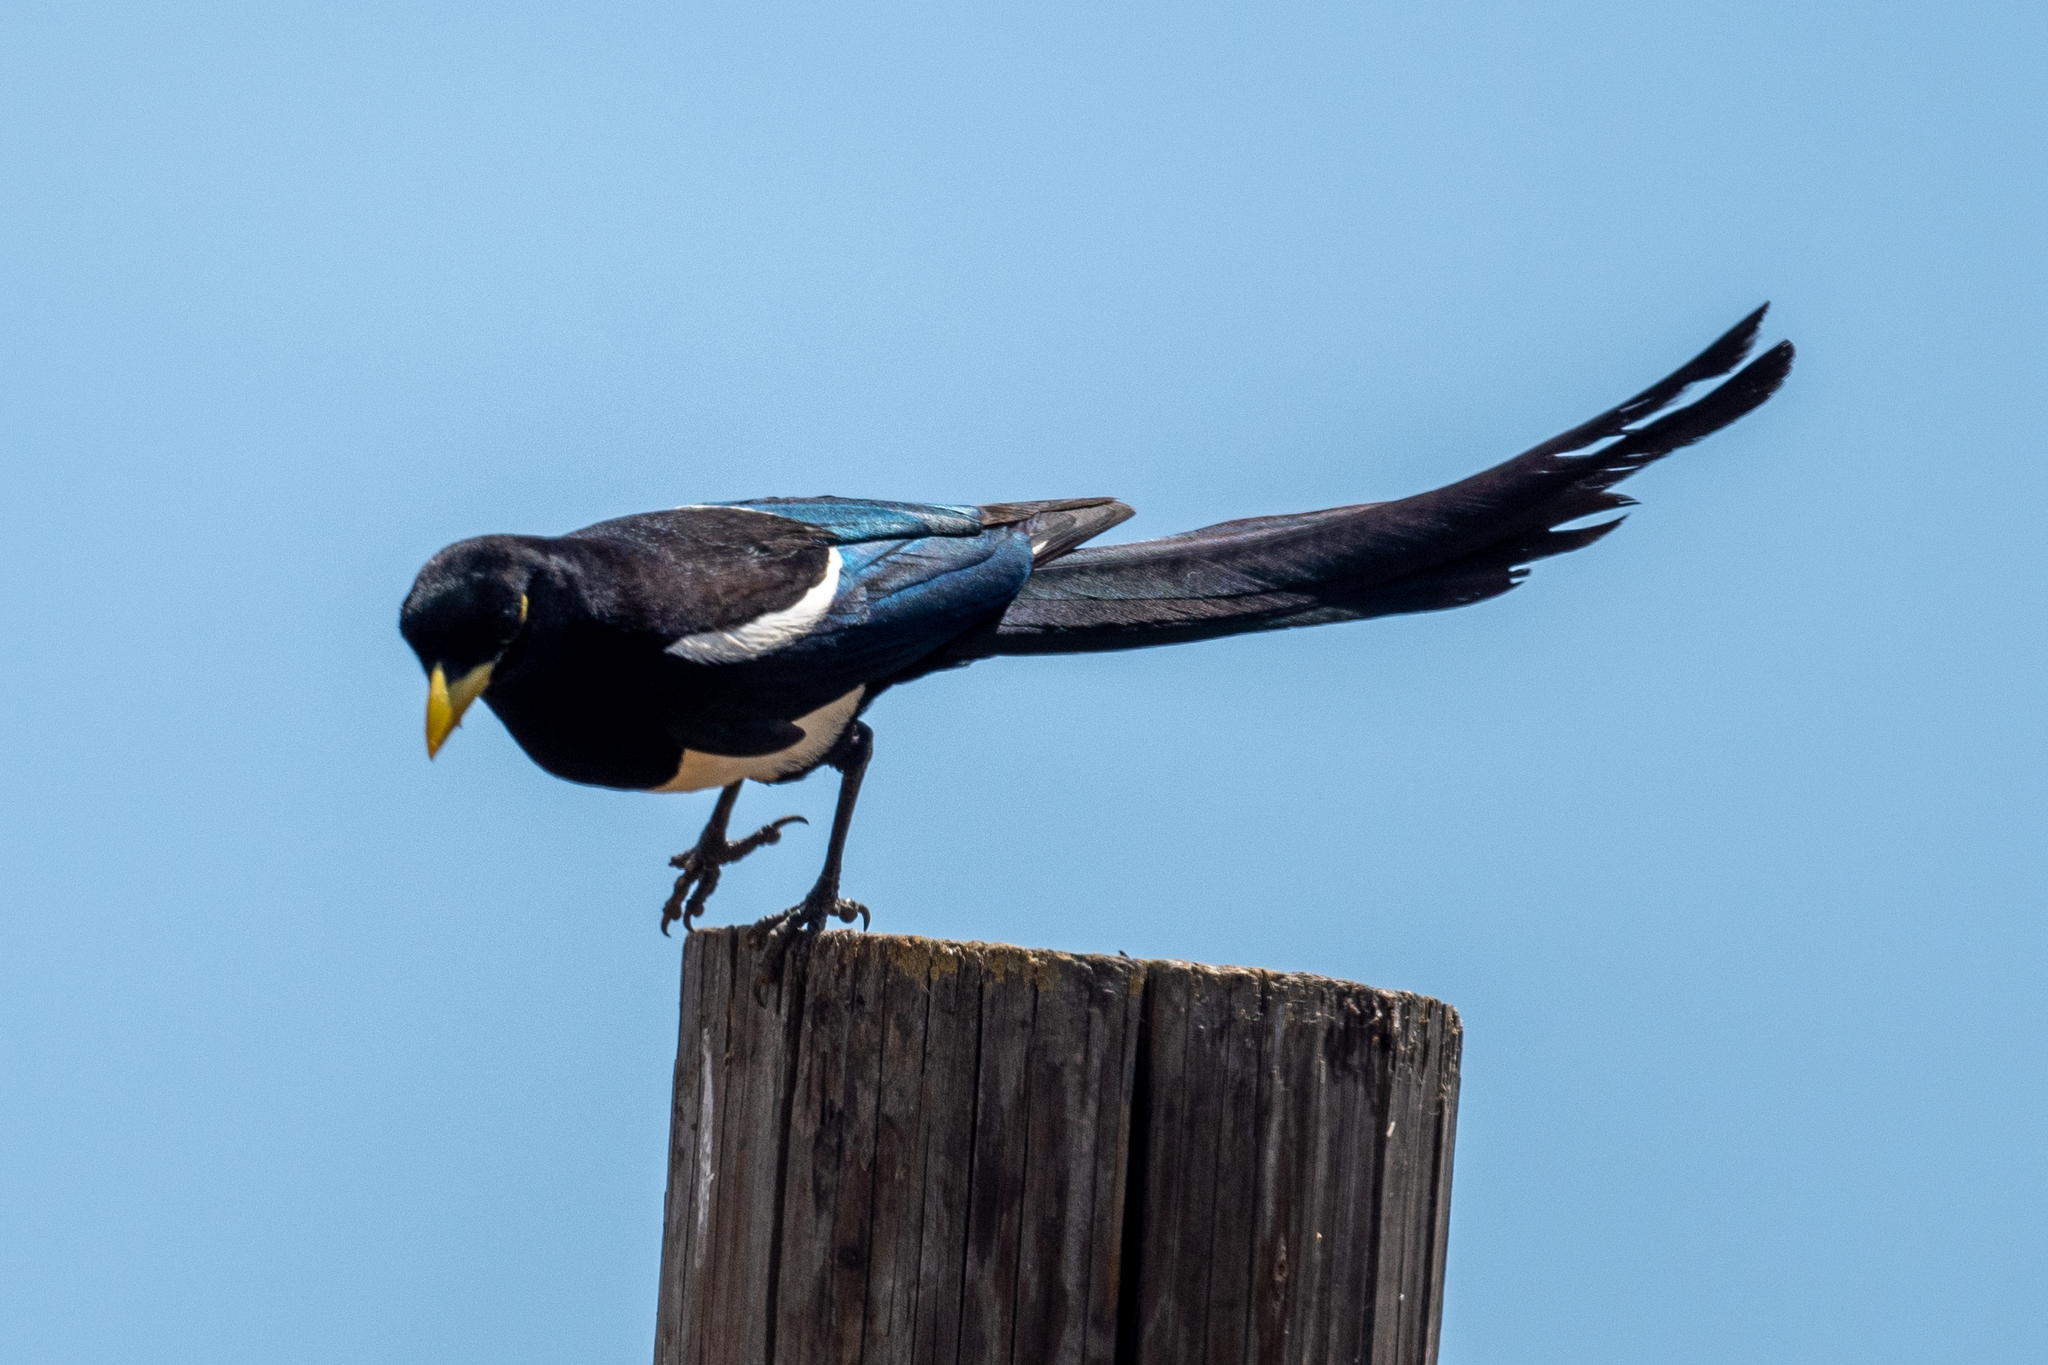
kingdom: Animalia
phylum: Chordata
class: Aves
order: Passeriformes
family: Corvidae
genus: Pica
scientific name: Pica nuttalli
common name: Yellow-billed magpie
